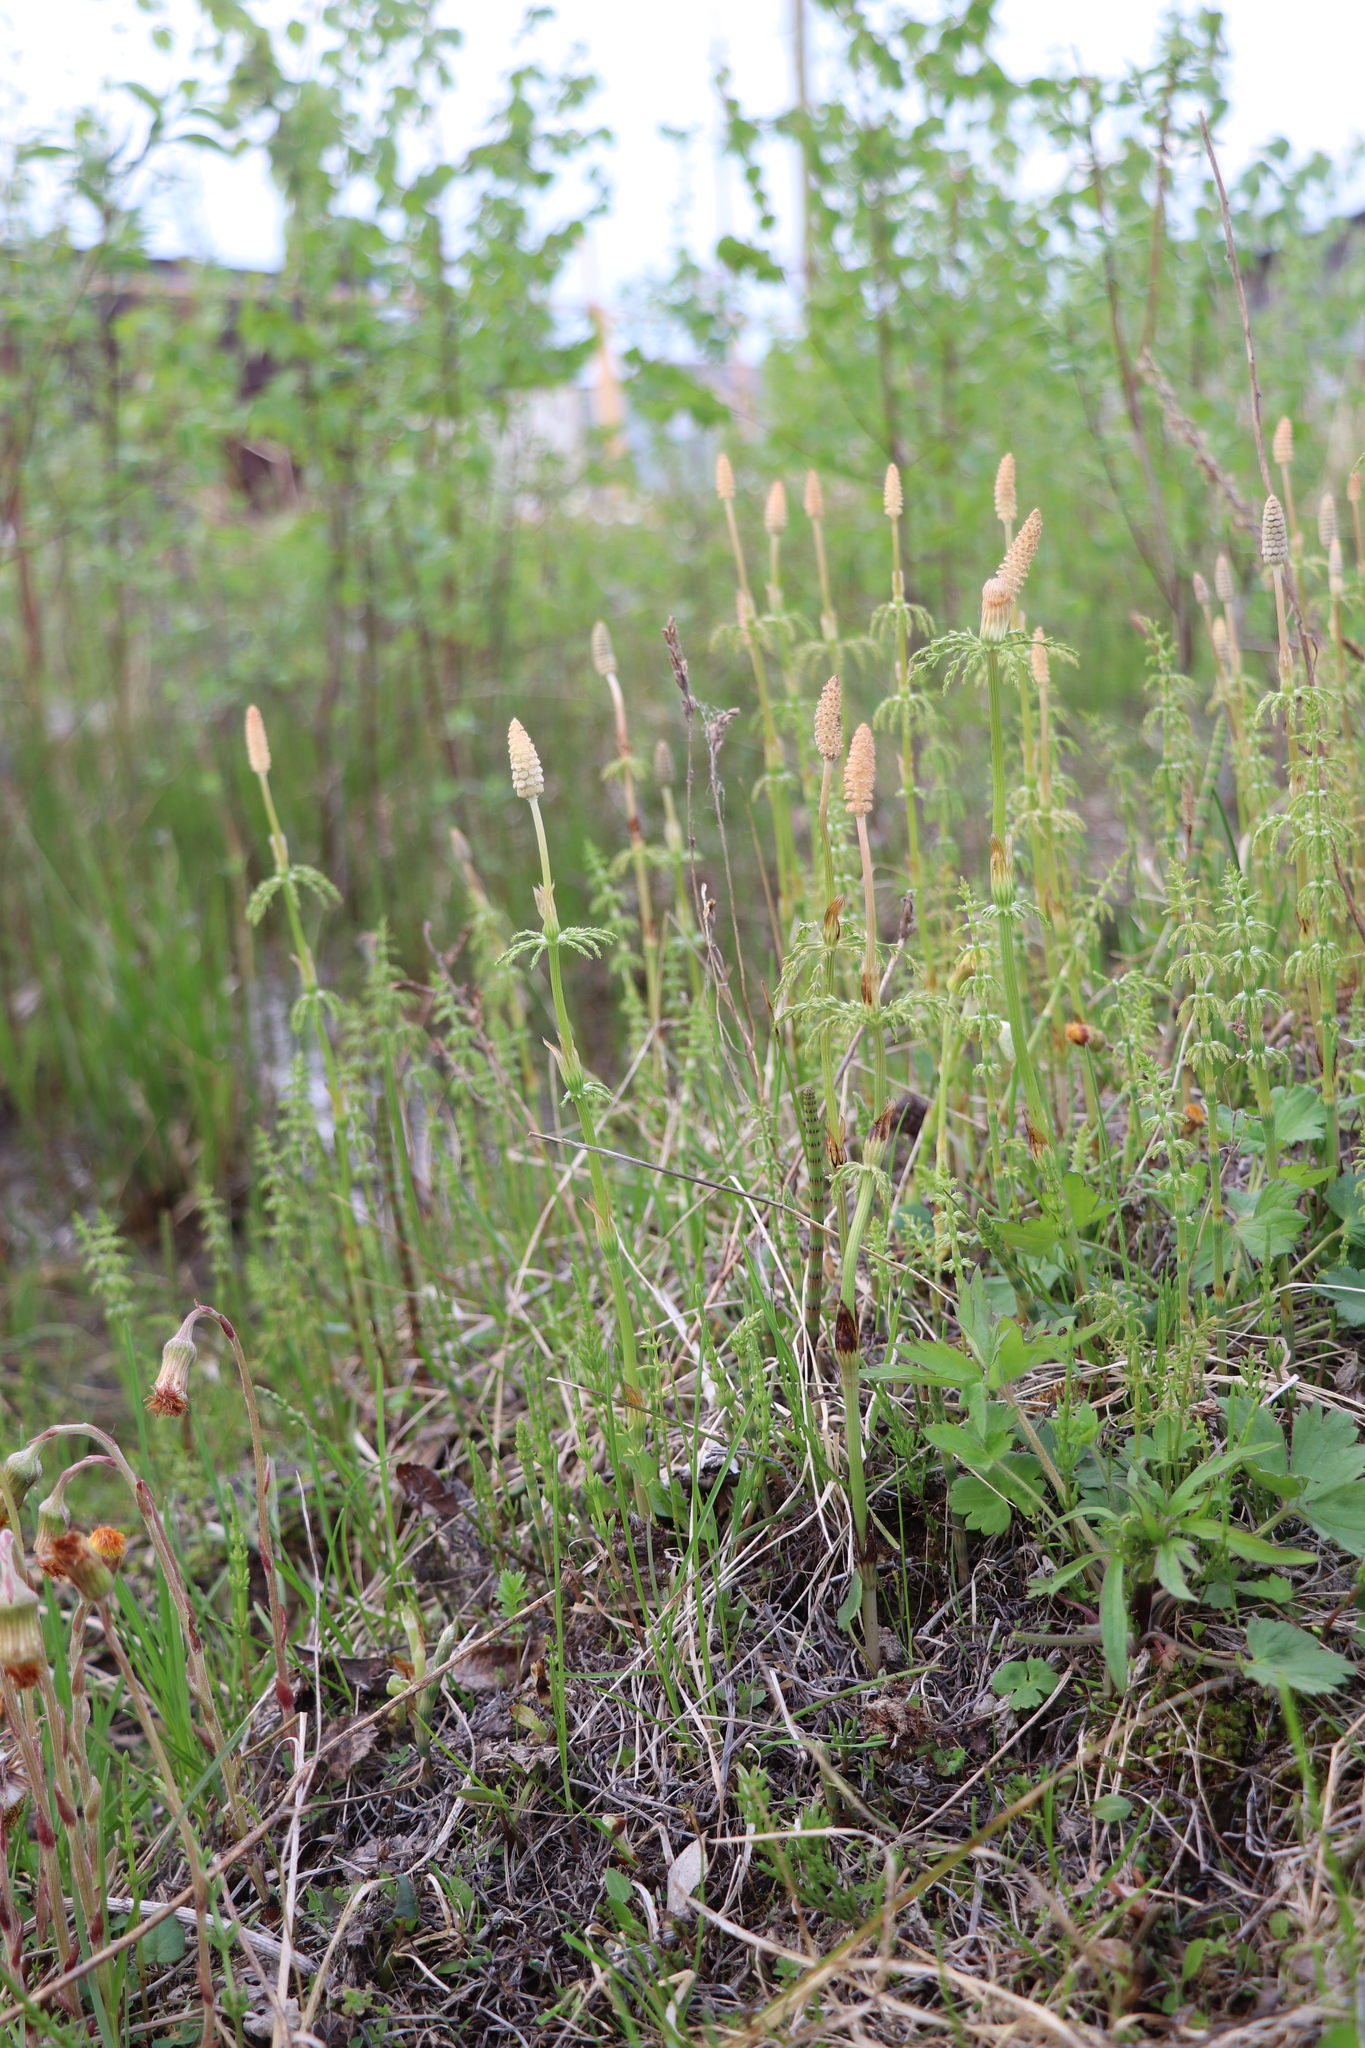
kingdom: Plantae
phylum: Tracheophyta
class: Polypodiopsida
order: Equisetales
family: Equisetaceae
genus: Equisetum
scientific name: Equisetum sylvaticum
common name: Wood horsetail
